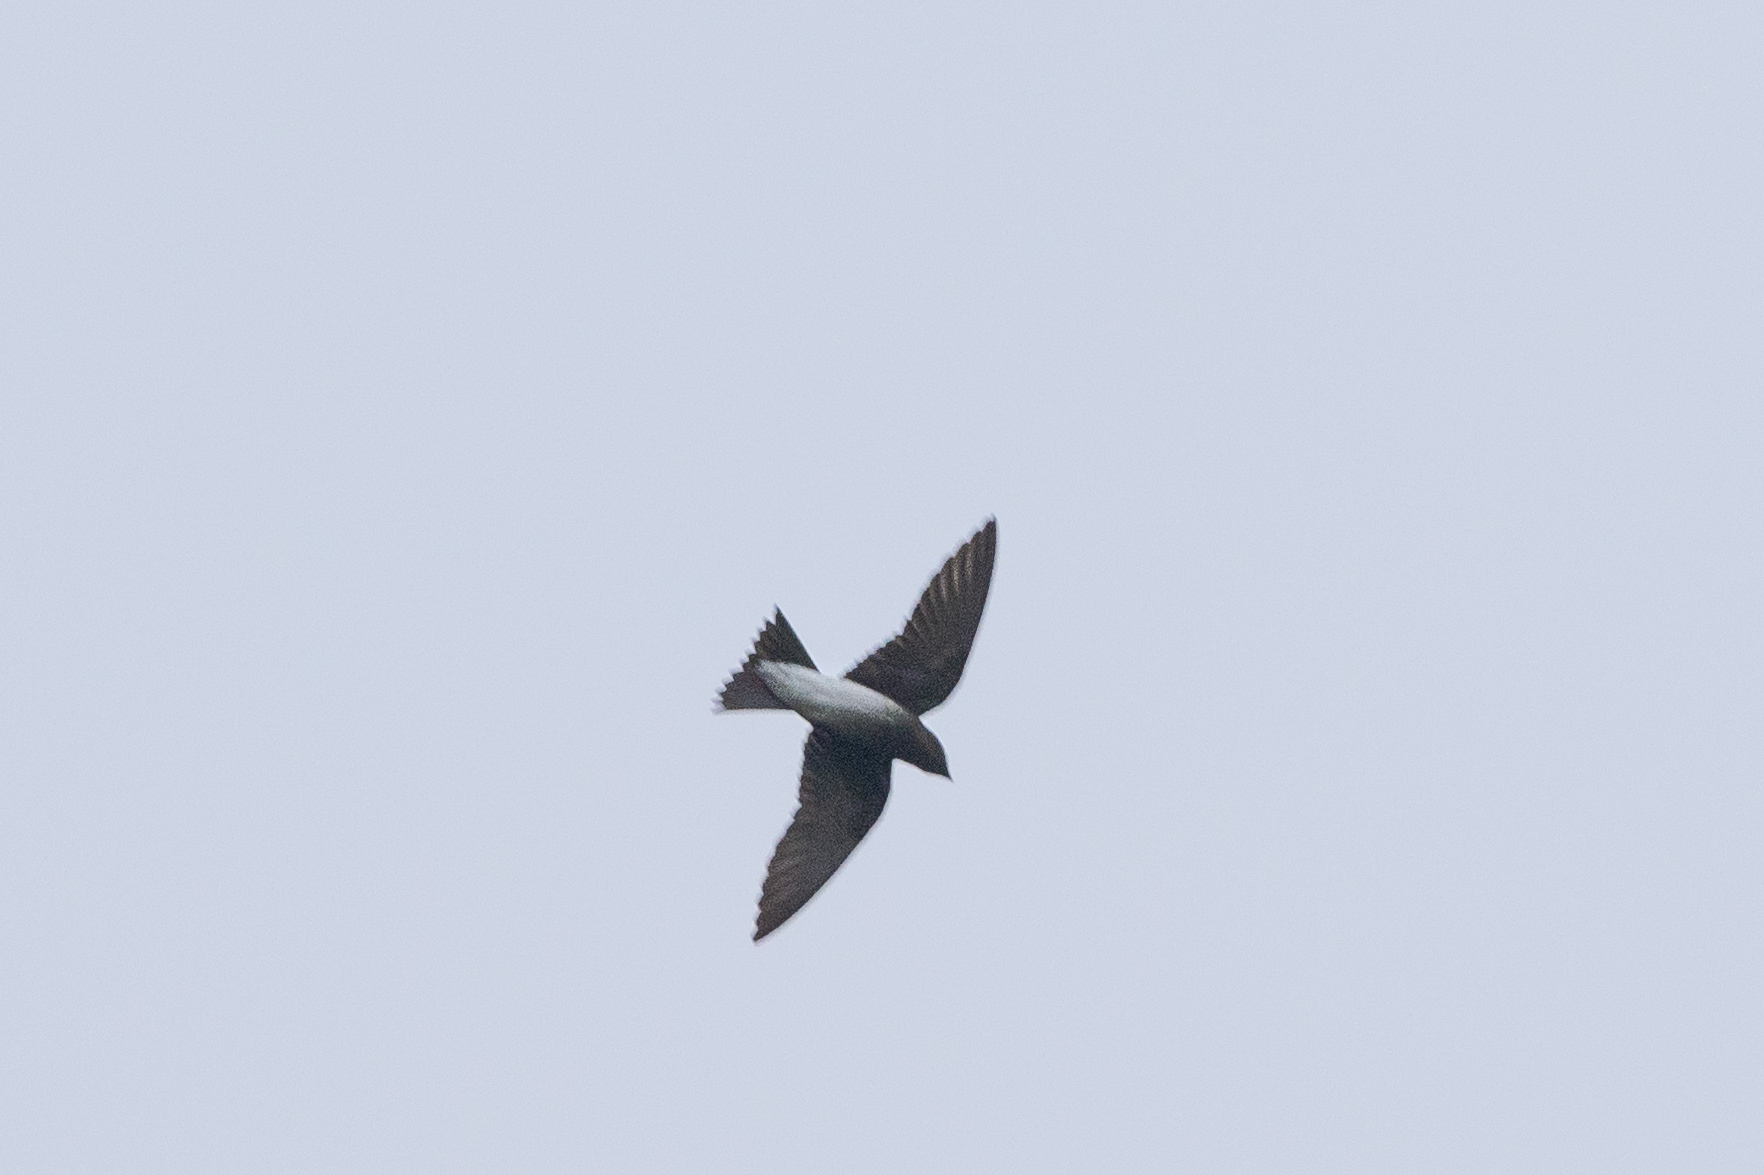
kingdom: Animalia
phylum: Chordata
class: Aves
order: Passeriformes
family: Hirundinidae
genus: Progne
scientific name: Progne chalybea
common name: Grey-breasted martin
